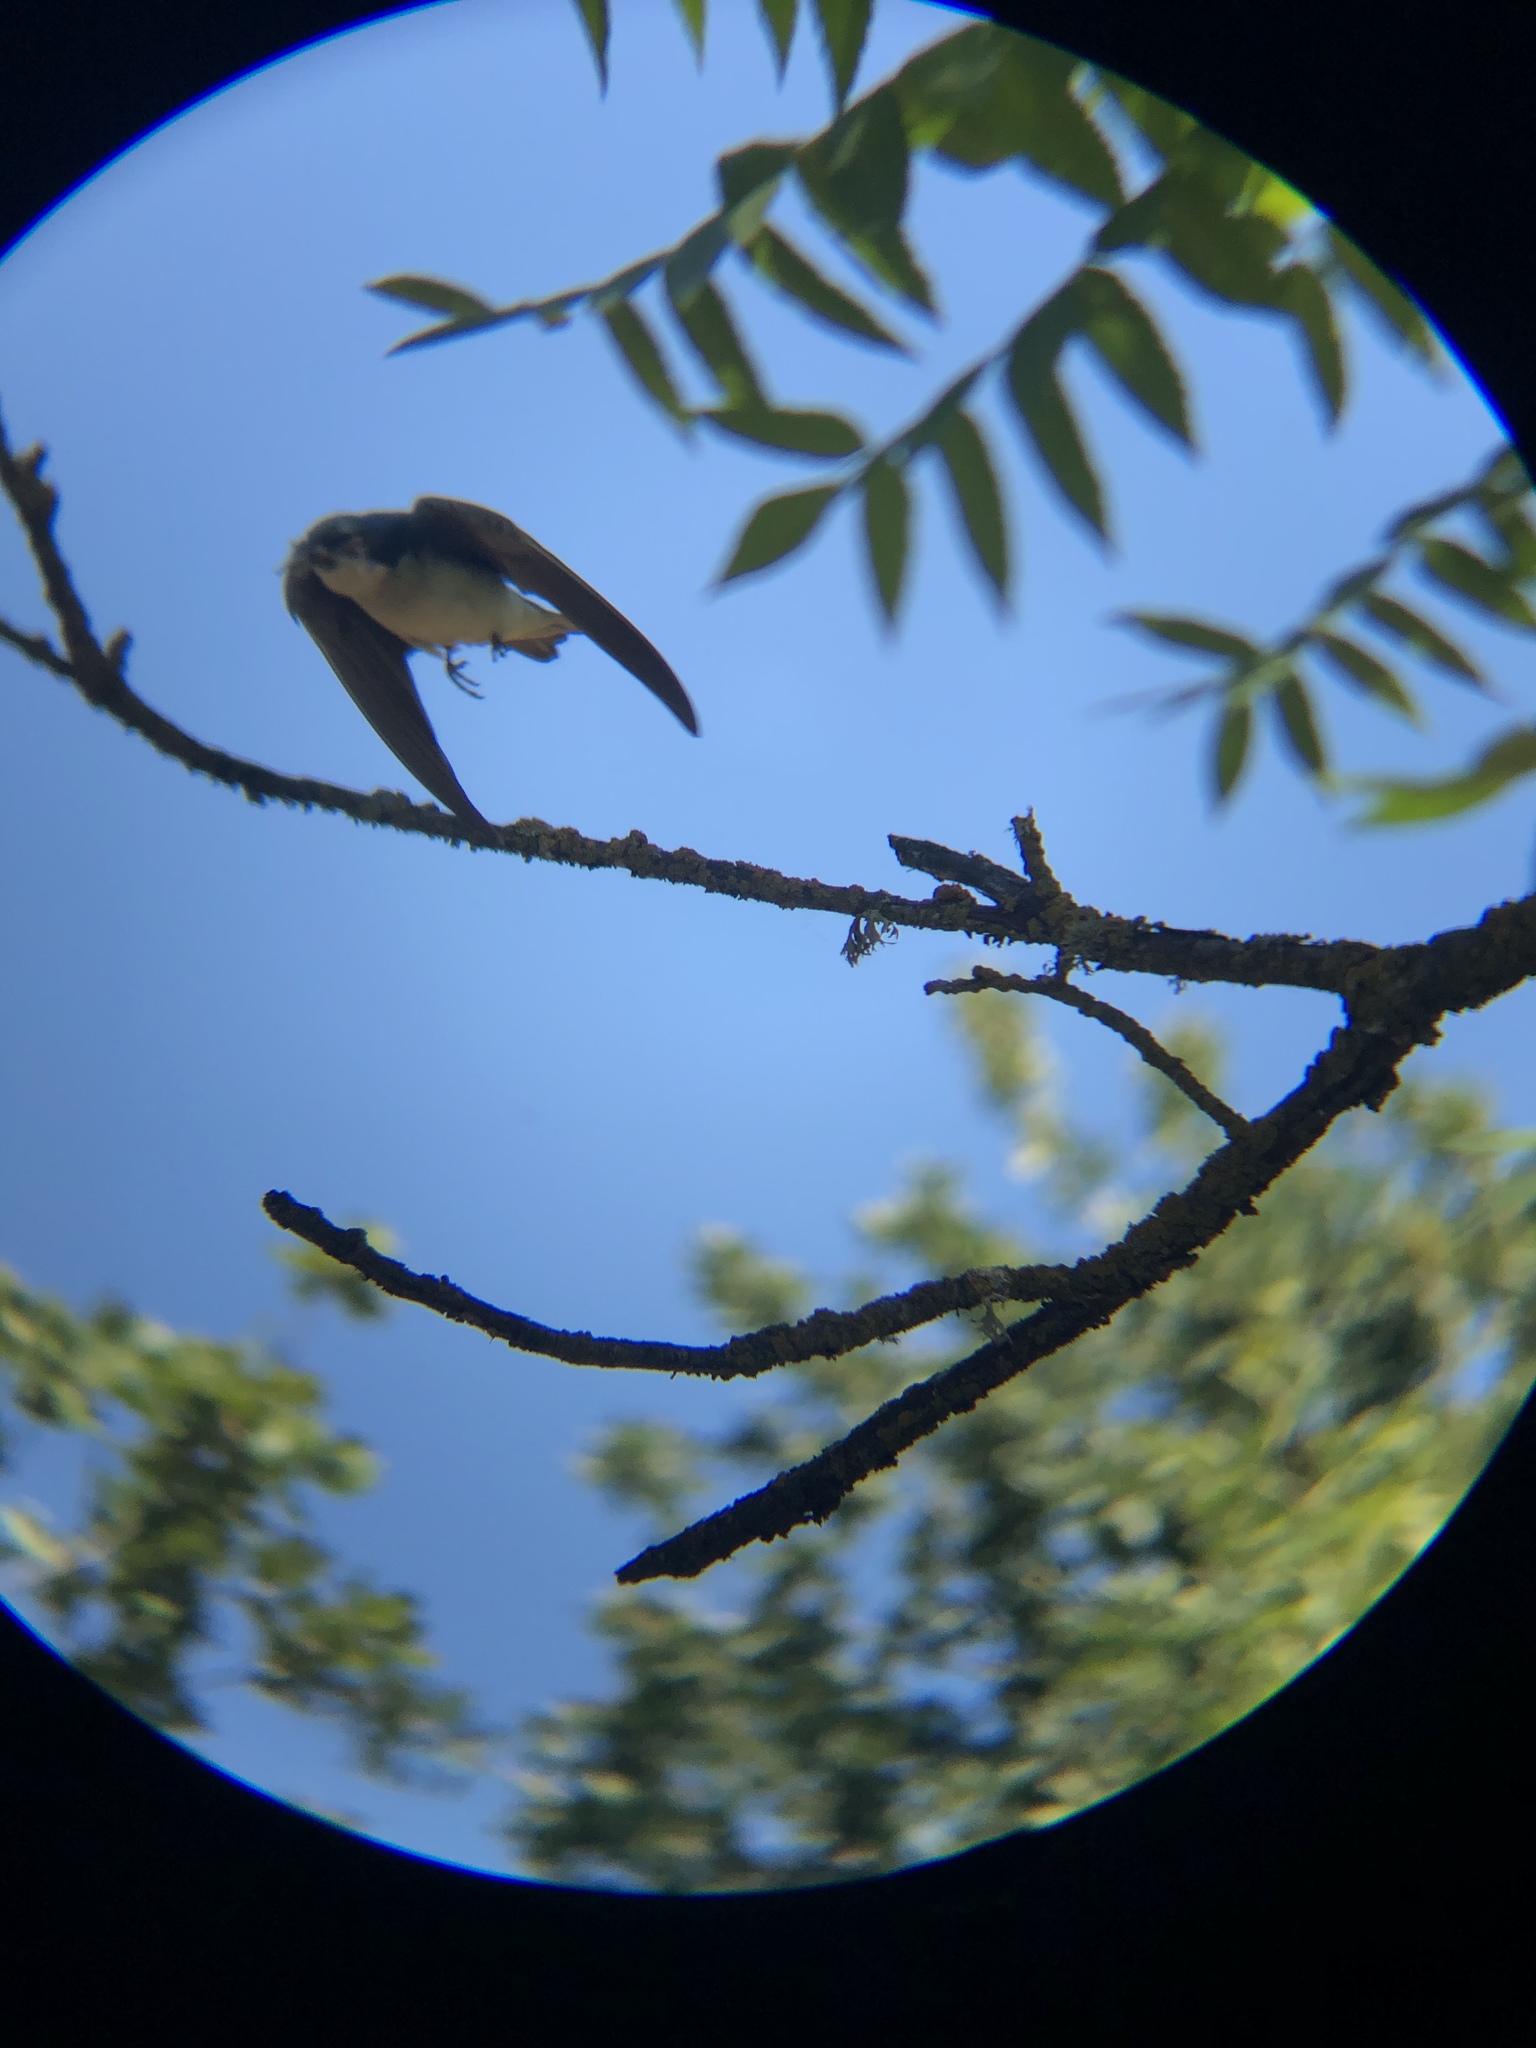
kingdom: Animalia
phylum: Chordata
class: Aves
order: Passeriformes
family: Hirundinidae
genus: Tachycineta
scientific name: Tachycineta bicolor
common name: Tree swallow
